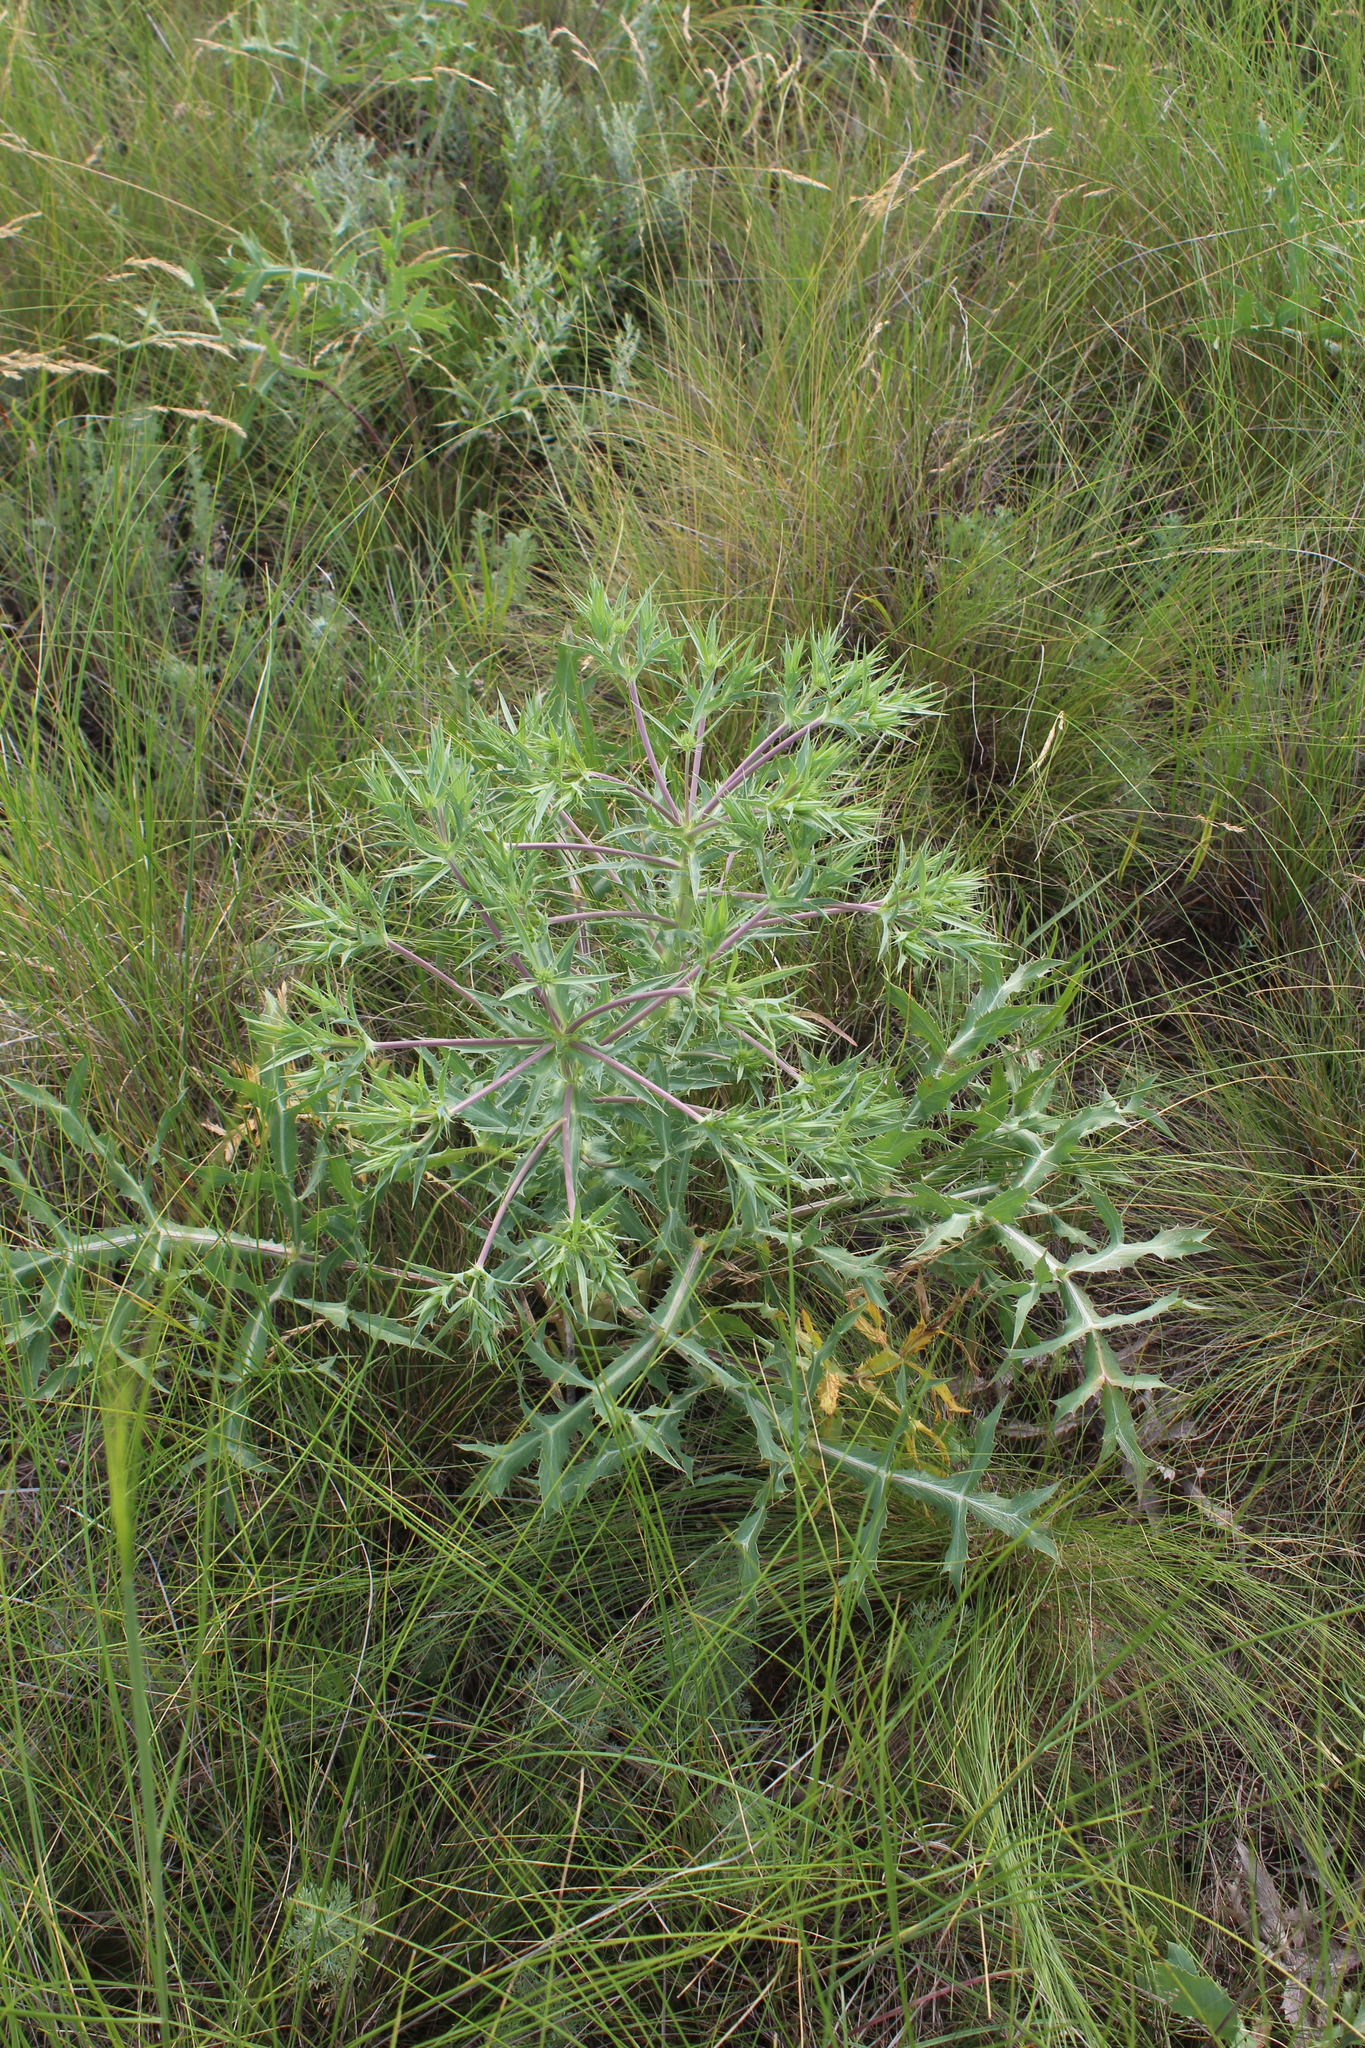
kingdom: Plantae
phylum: Tracheophyta
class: Magnoliopsida
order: Apiales
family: Apiaceae
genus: Eryngium
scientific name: Eryngium campestre
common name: Field eryngo
